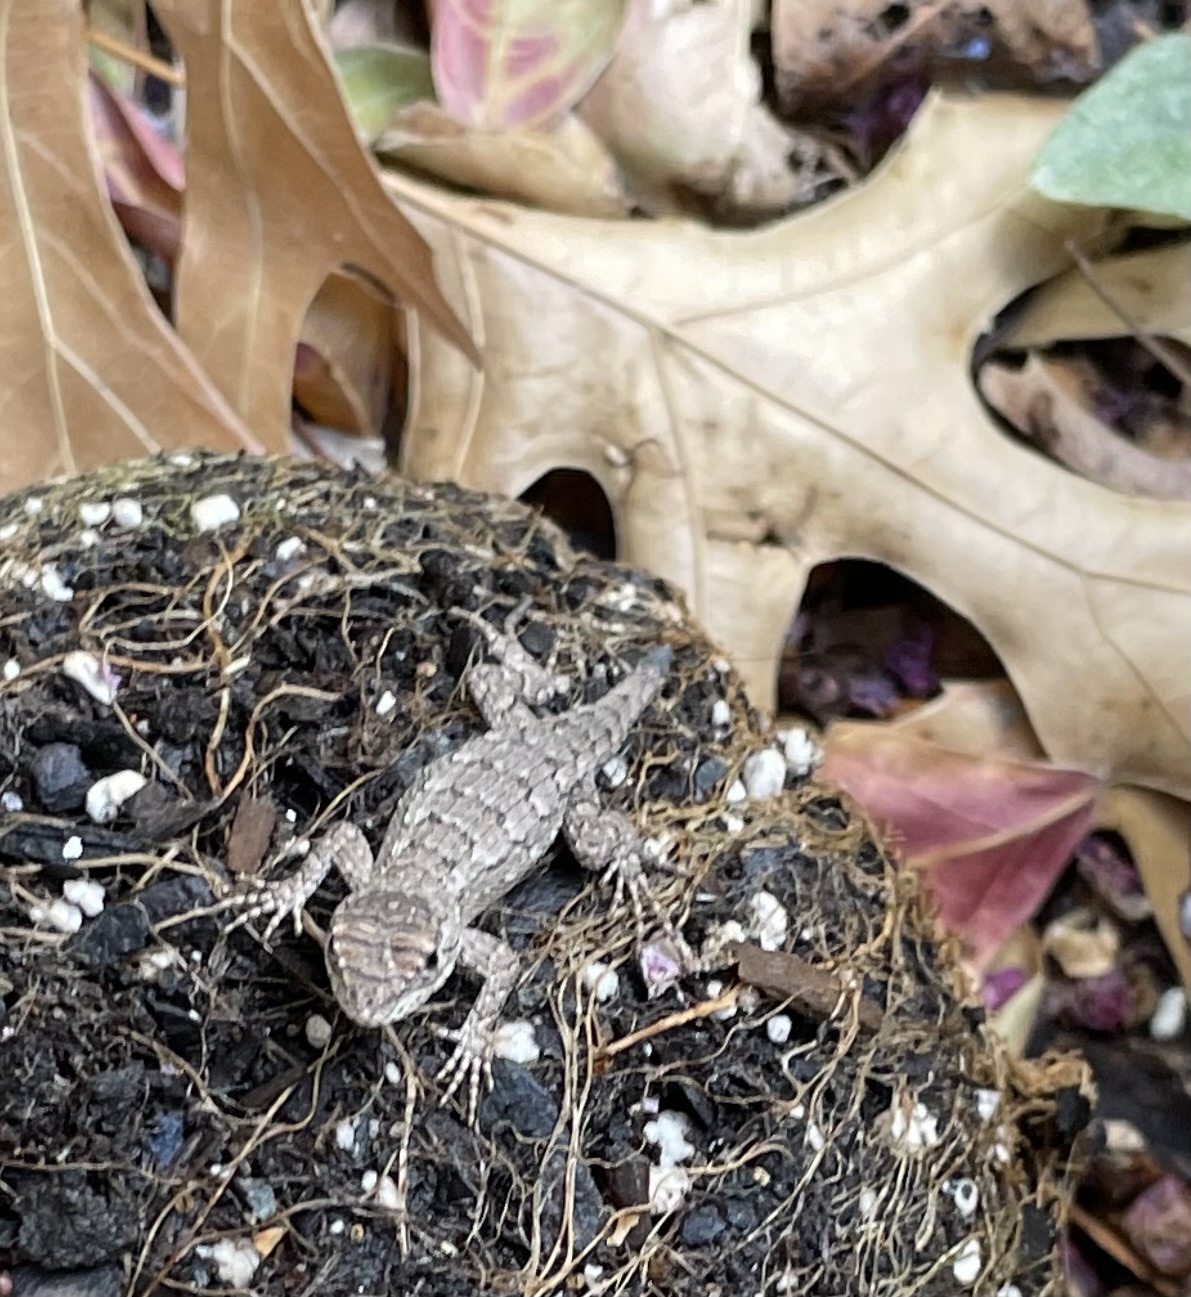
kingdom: Animalia
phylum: Chordata
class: Squamata
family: Phrynosomatidae
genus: Sceloporus
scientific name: Sceloporus olivaceus
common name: Texas spiny lizard
